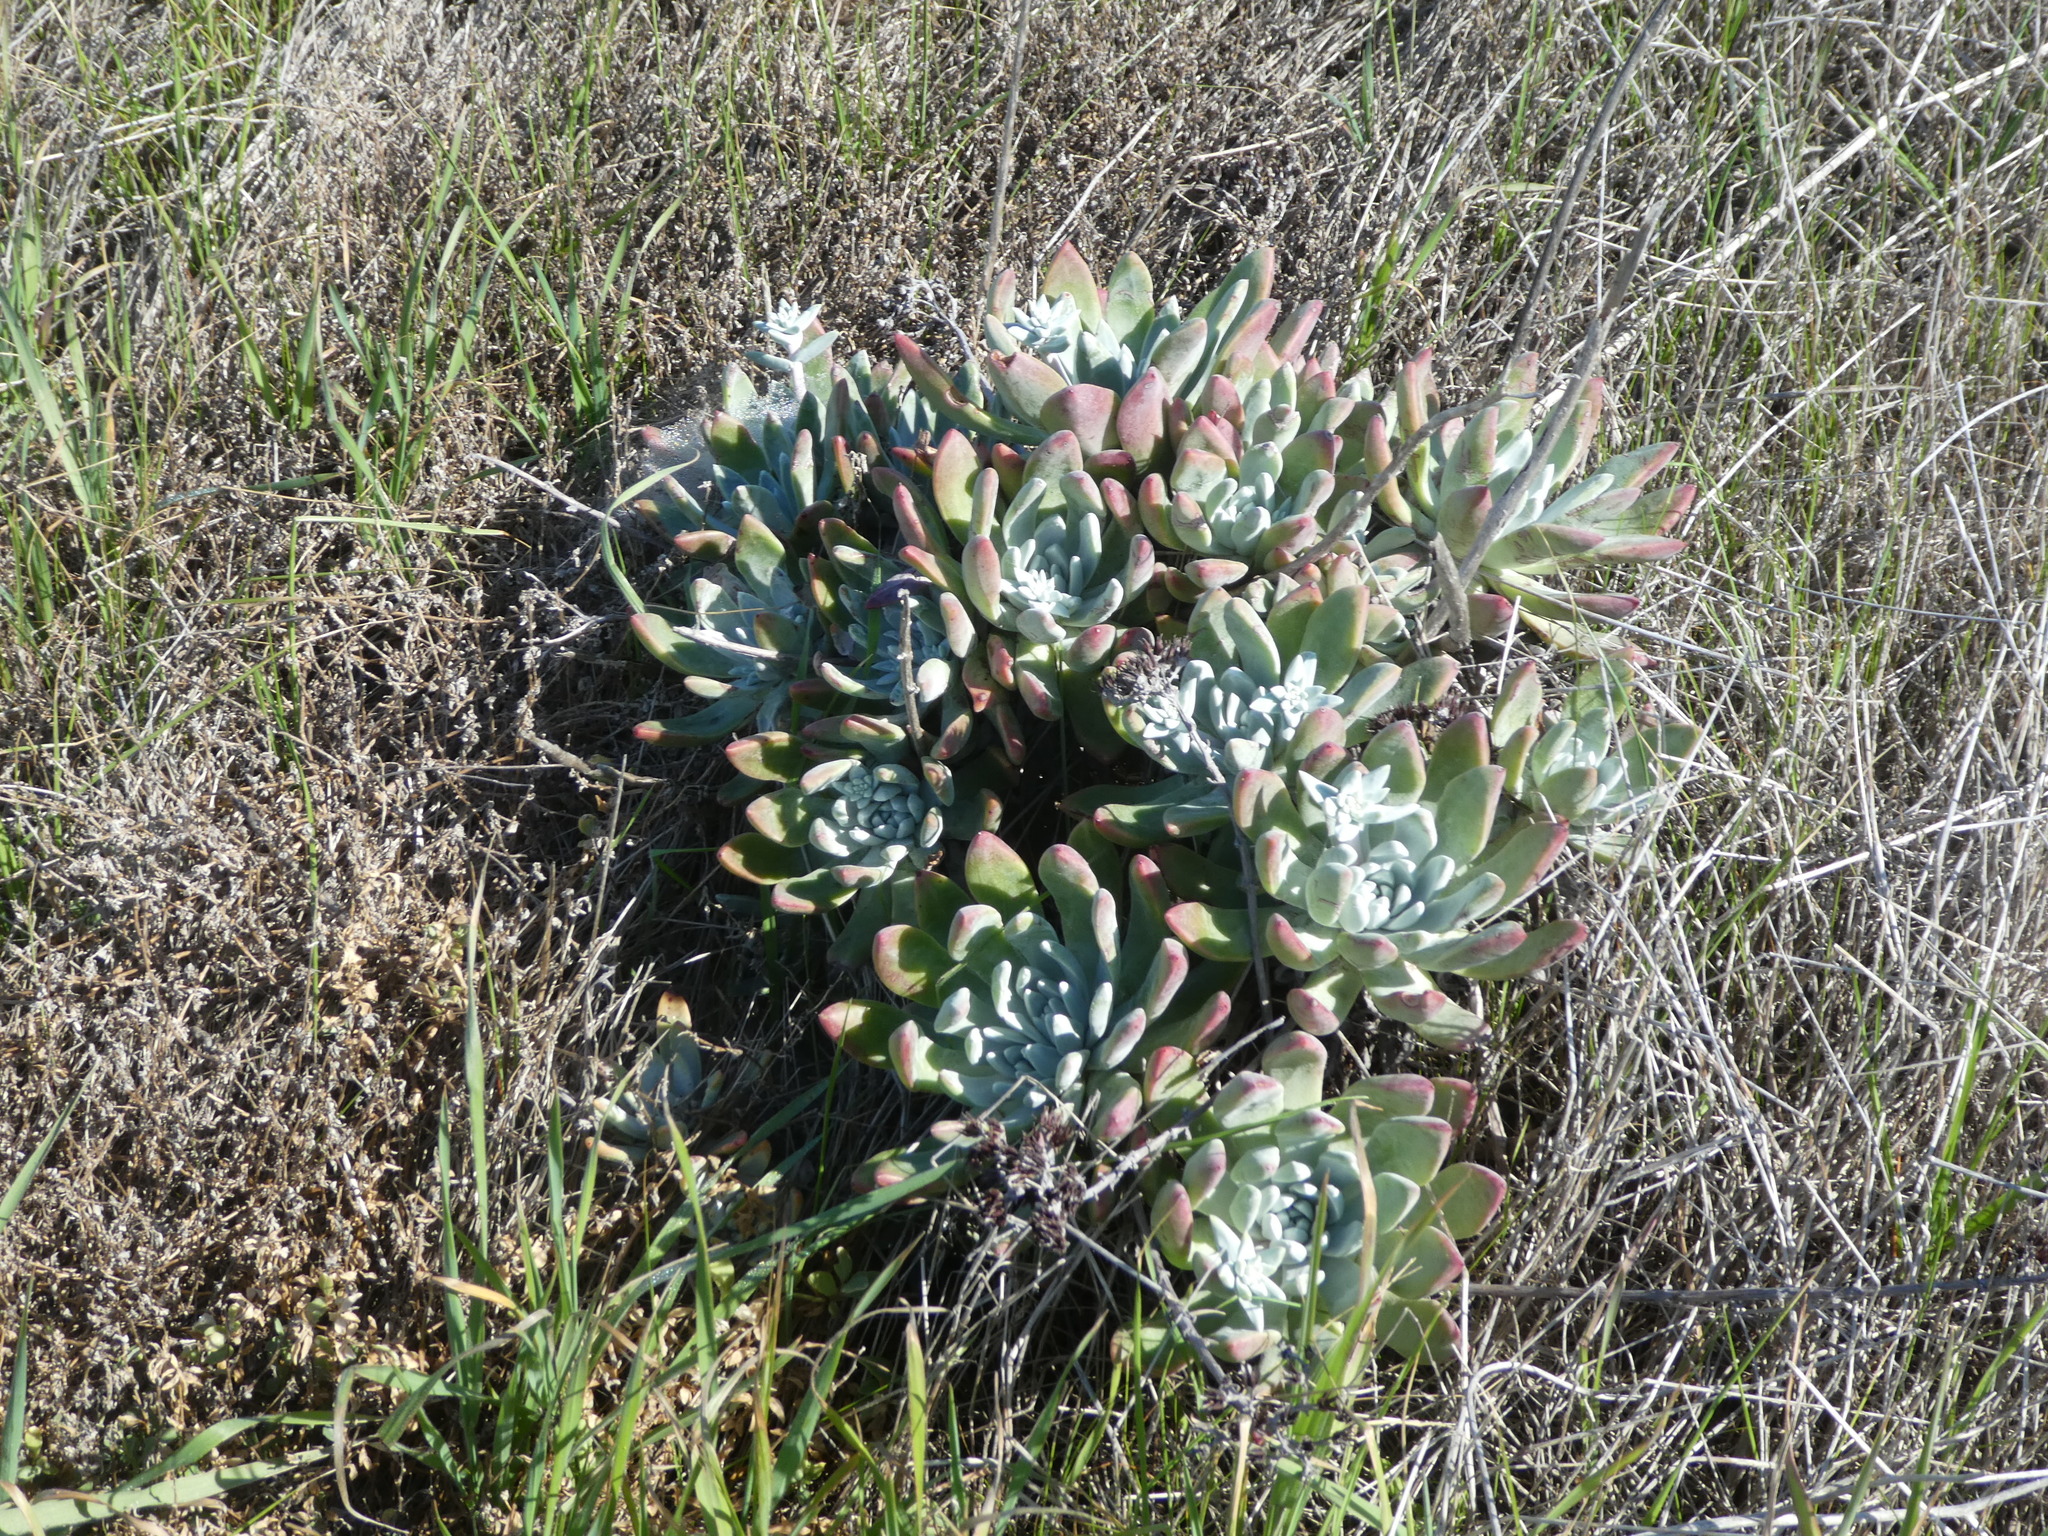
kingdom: Plantae
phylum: Tracheophyta
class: Magnoliopsida
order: Saxifragales
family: Crassulaceae
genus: Dudleya
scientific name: Dudleya greenei
